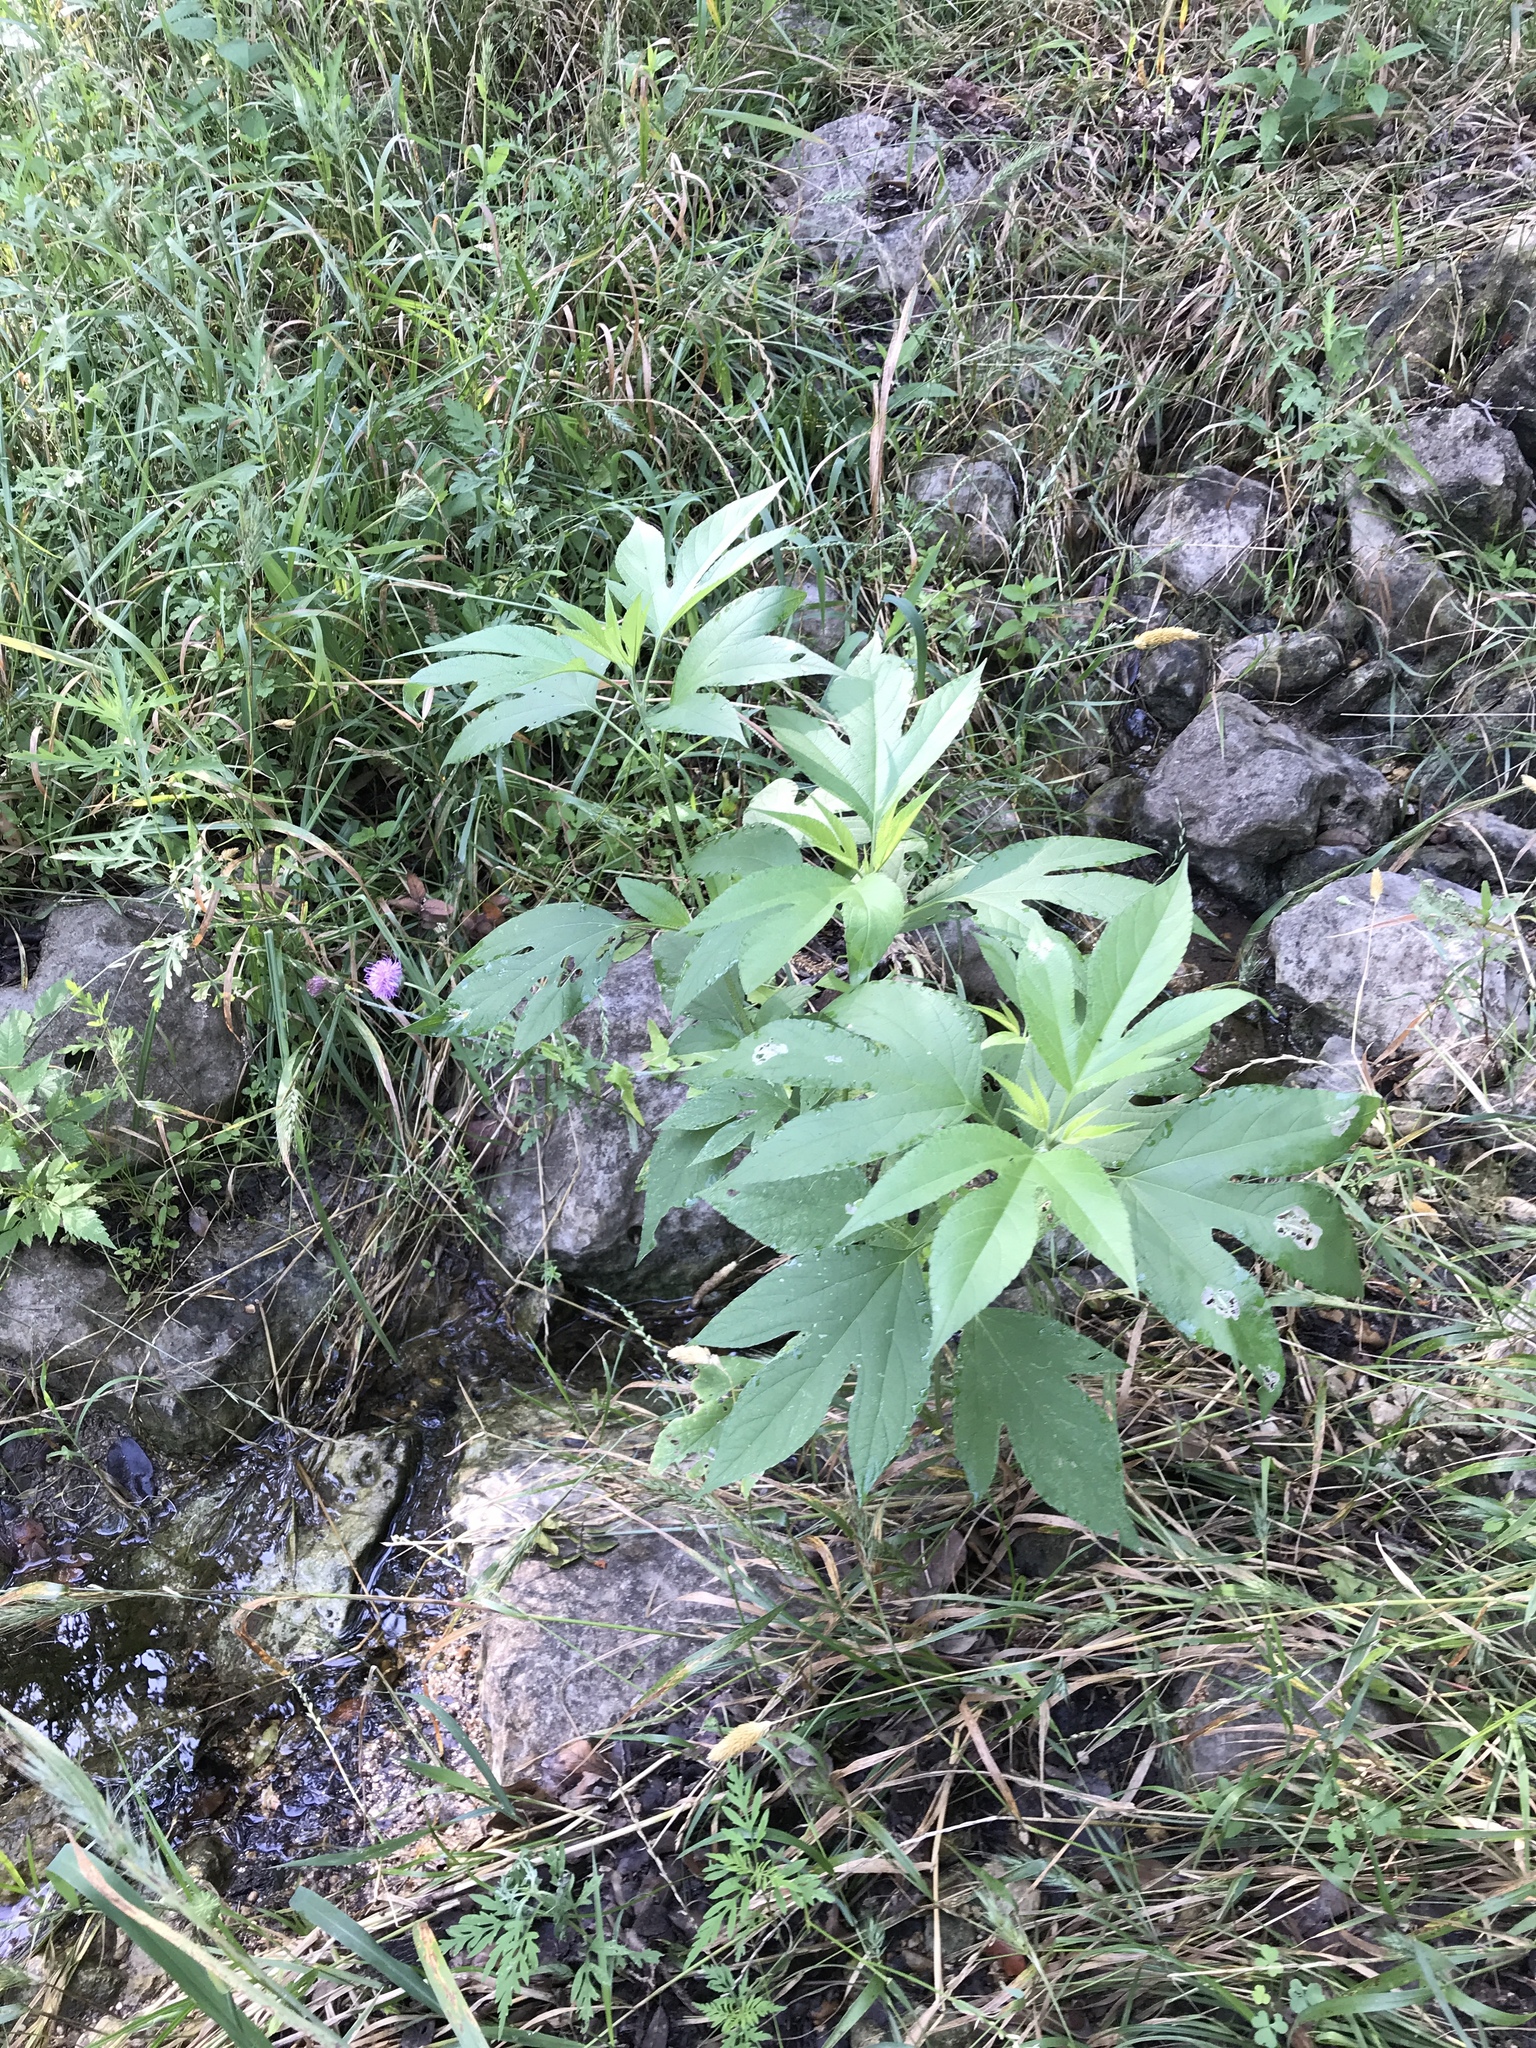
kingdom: Plantae
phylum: Tracheophyta
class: Magnoliopsida
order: Asterales
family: Asteraceae
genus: Ambrosia
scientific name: Ambrosia trifida
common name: Giant ragweed
